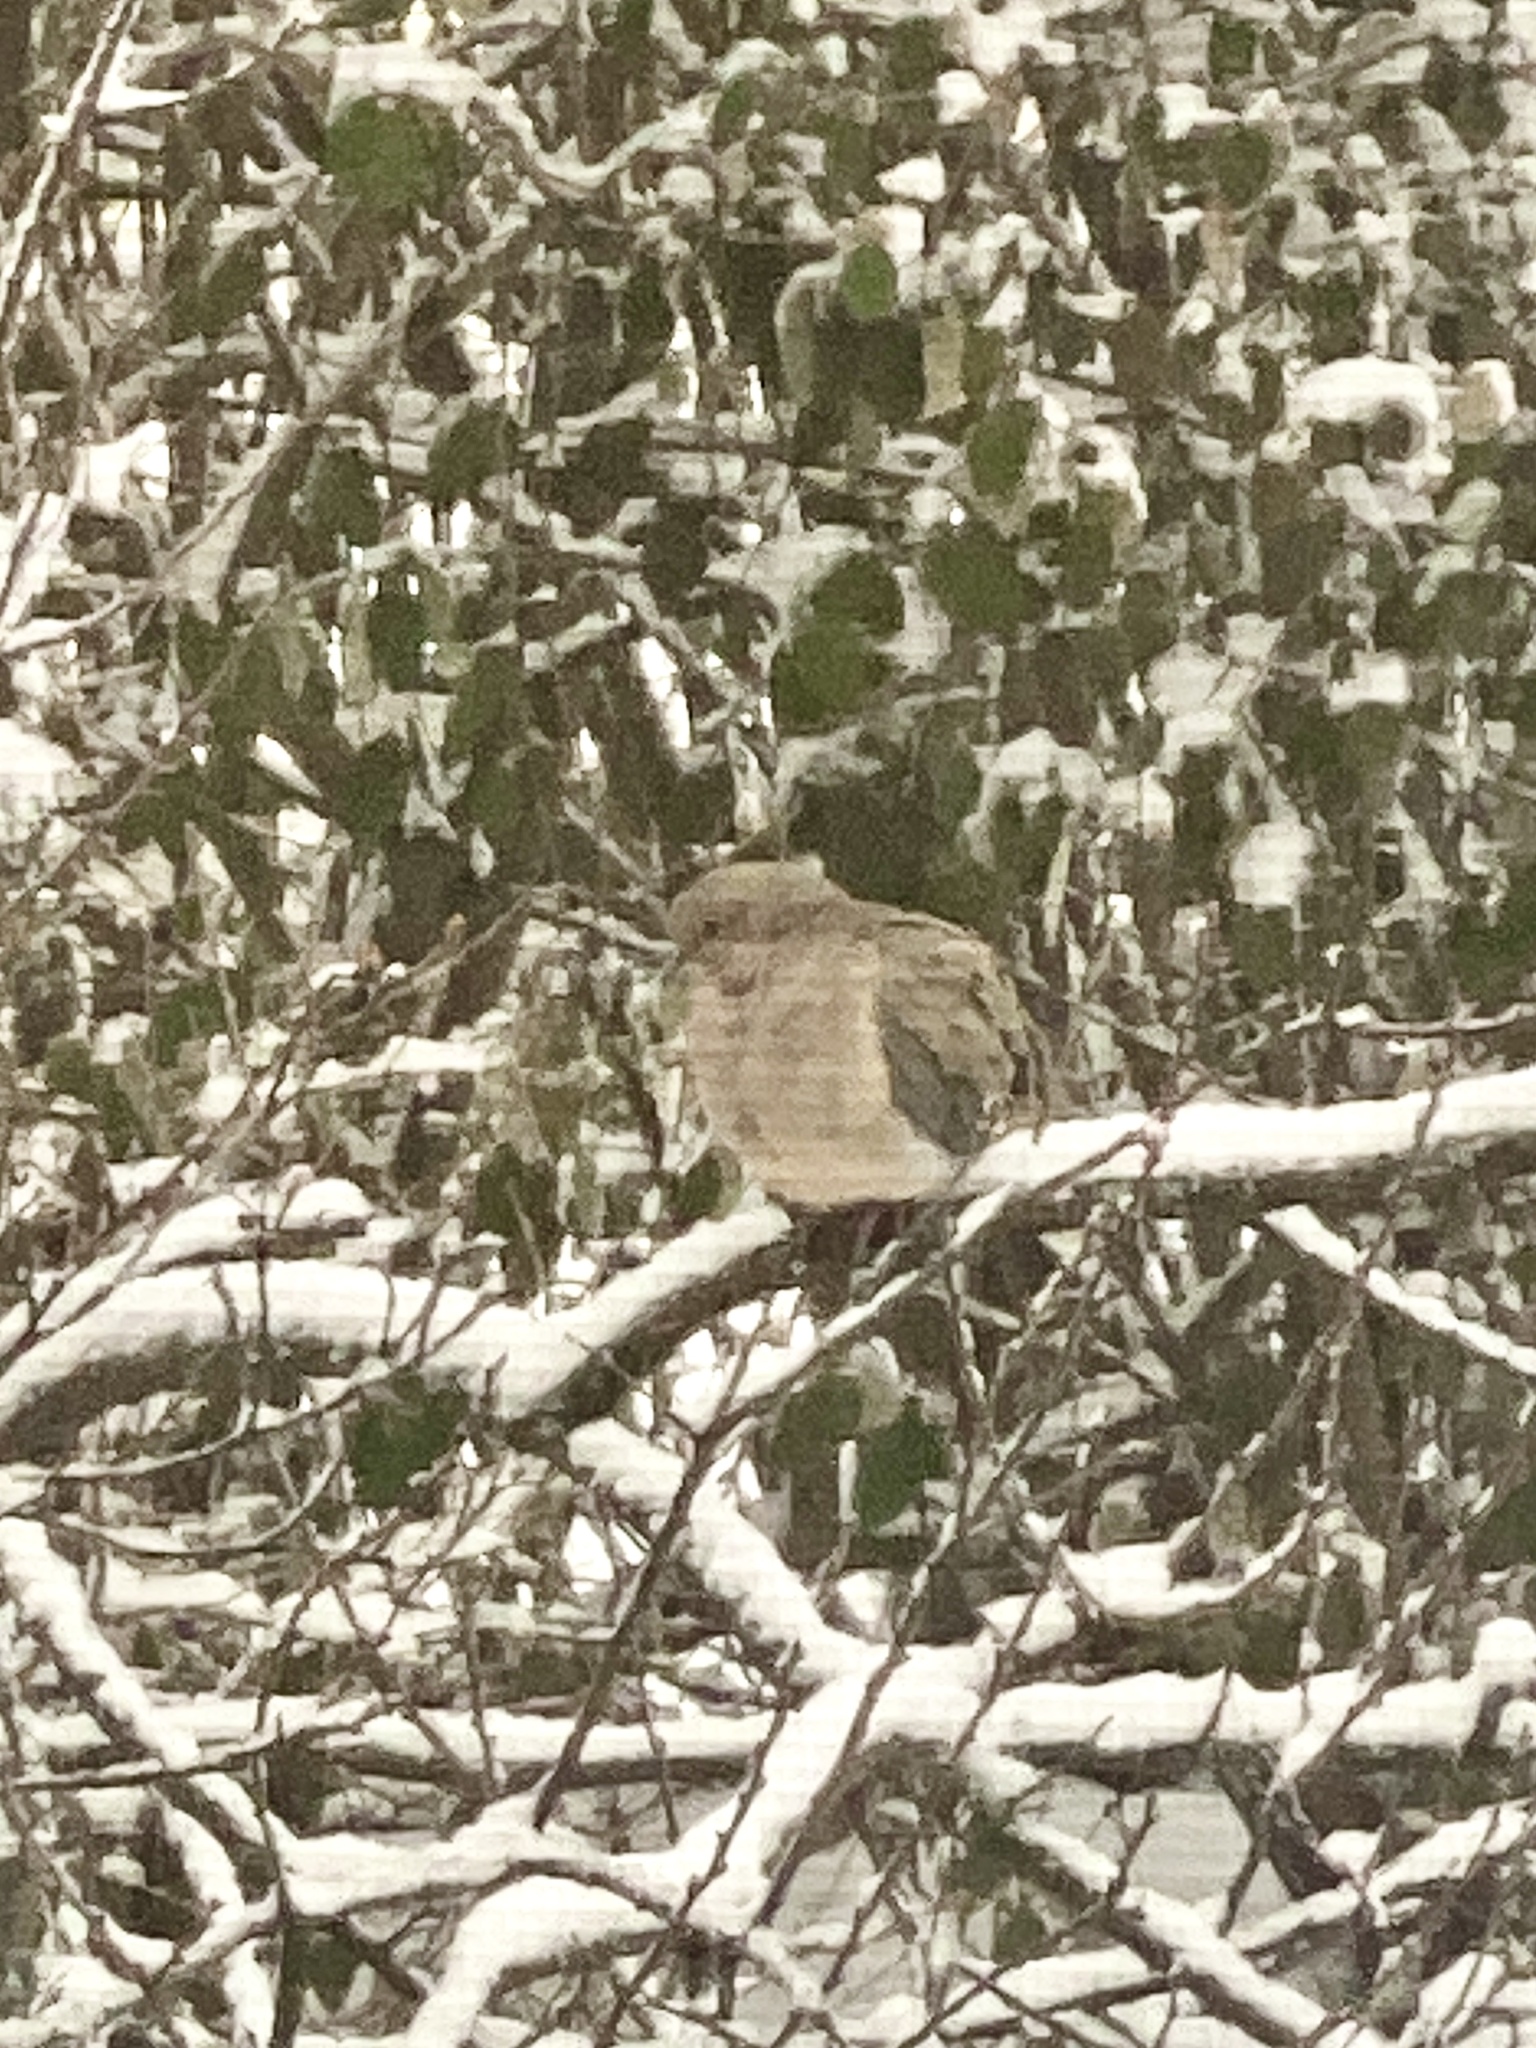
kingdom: Animalia
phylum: Chordata
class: Aves
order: Columbiformes
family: Columbidae
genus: Zenaida
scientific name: Zenaida macroura
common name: Mourning dove
